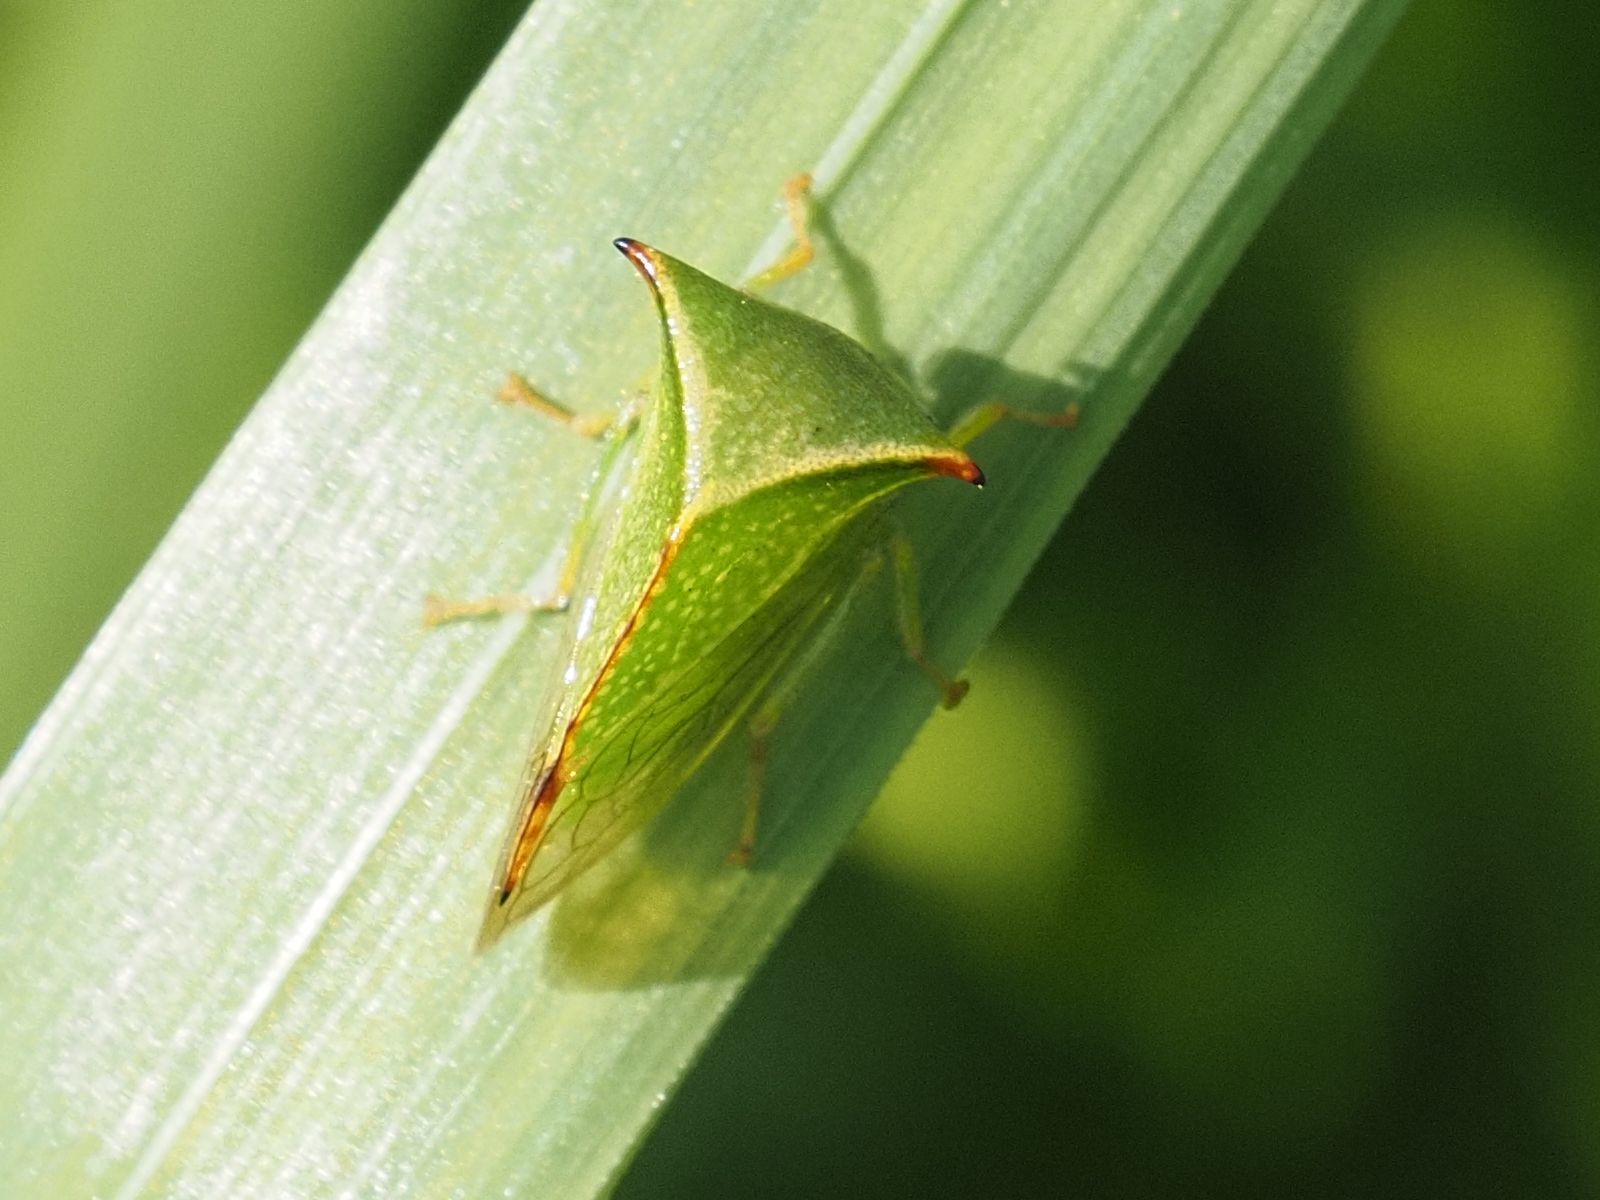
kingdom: Animalia
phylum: Arthropoda
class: Insecta
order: Hemiptera
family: Membracidae
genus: Stictocephala
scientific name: Stictocephala bisonia
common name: American buffalo treehopper
